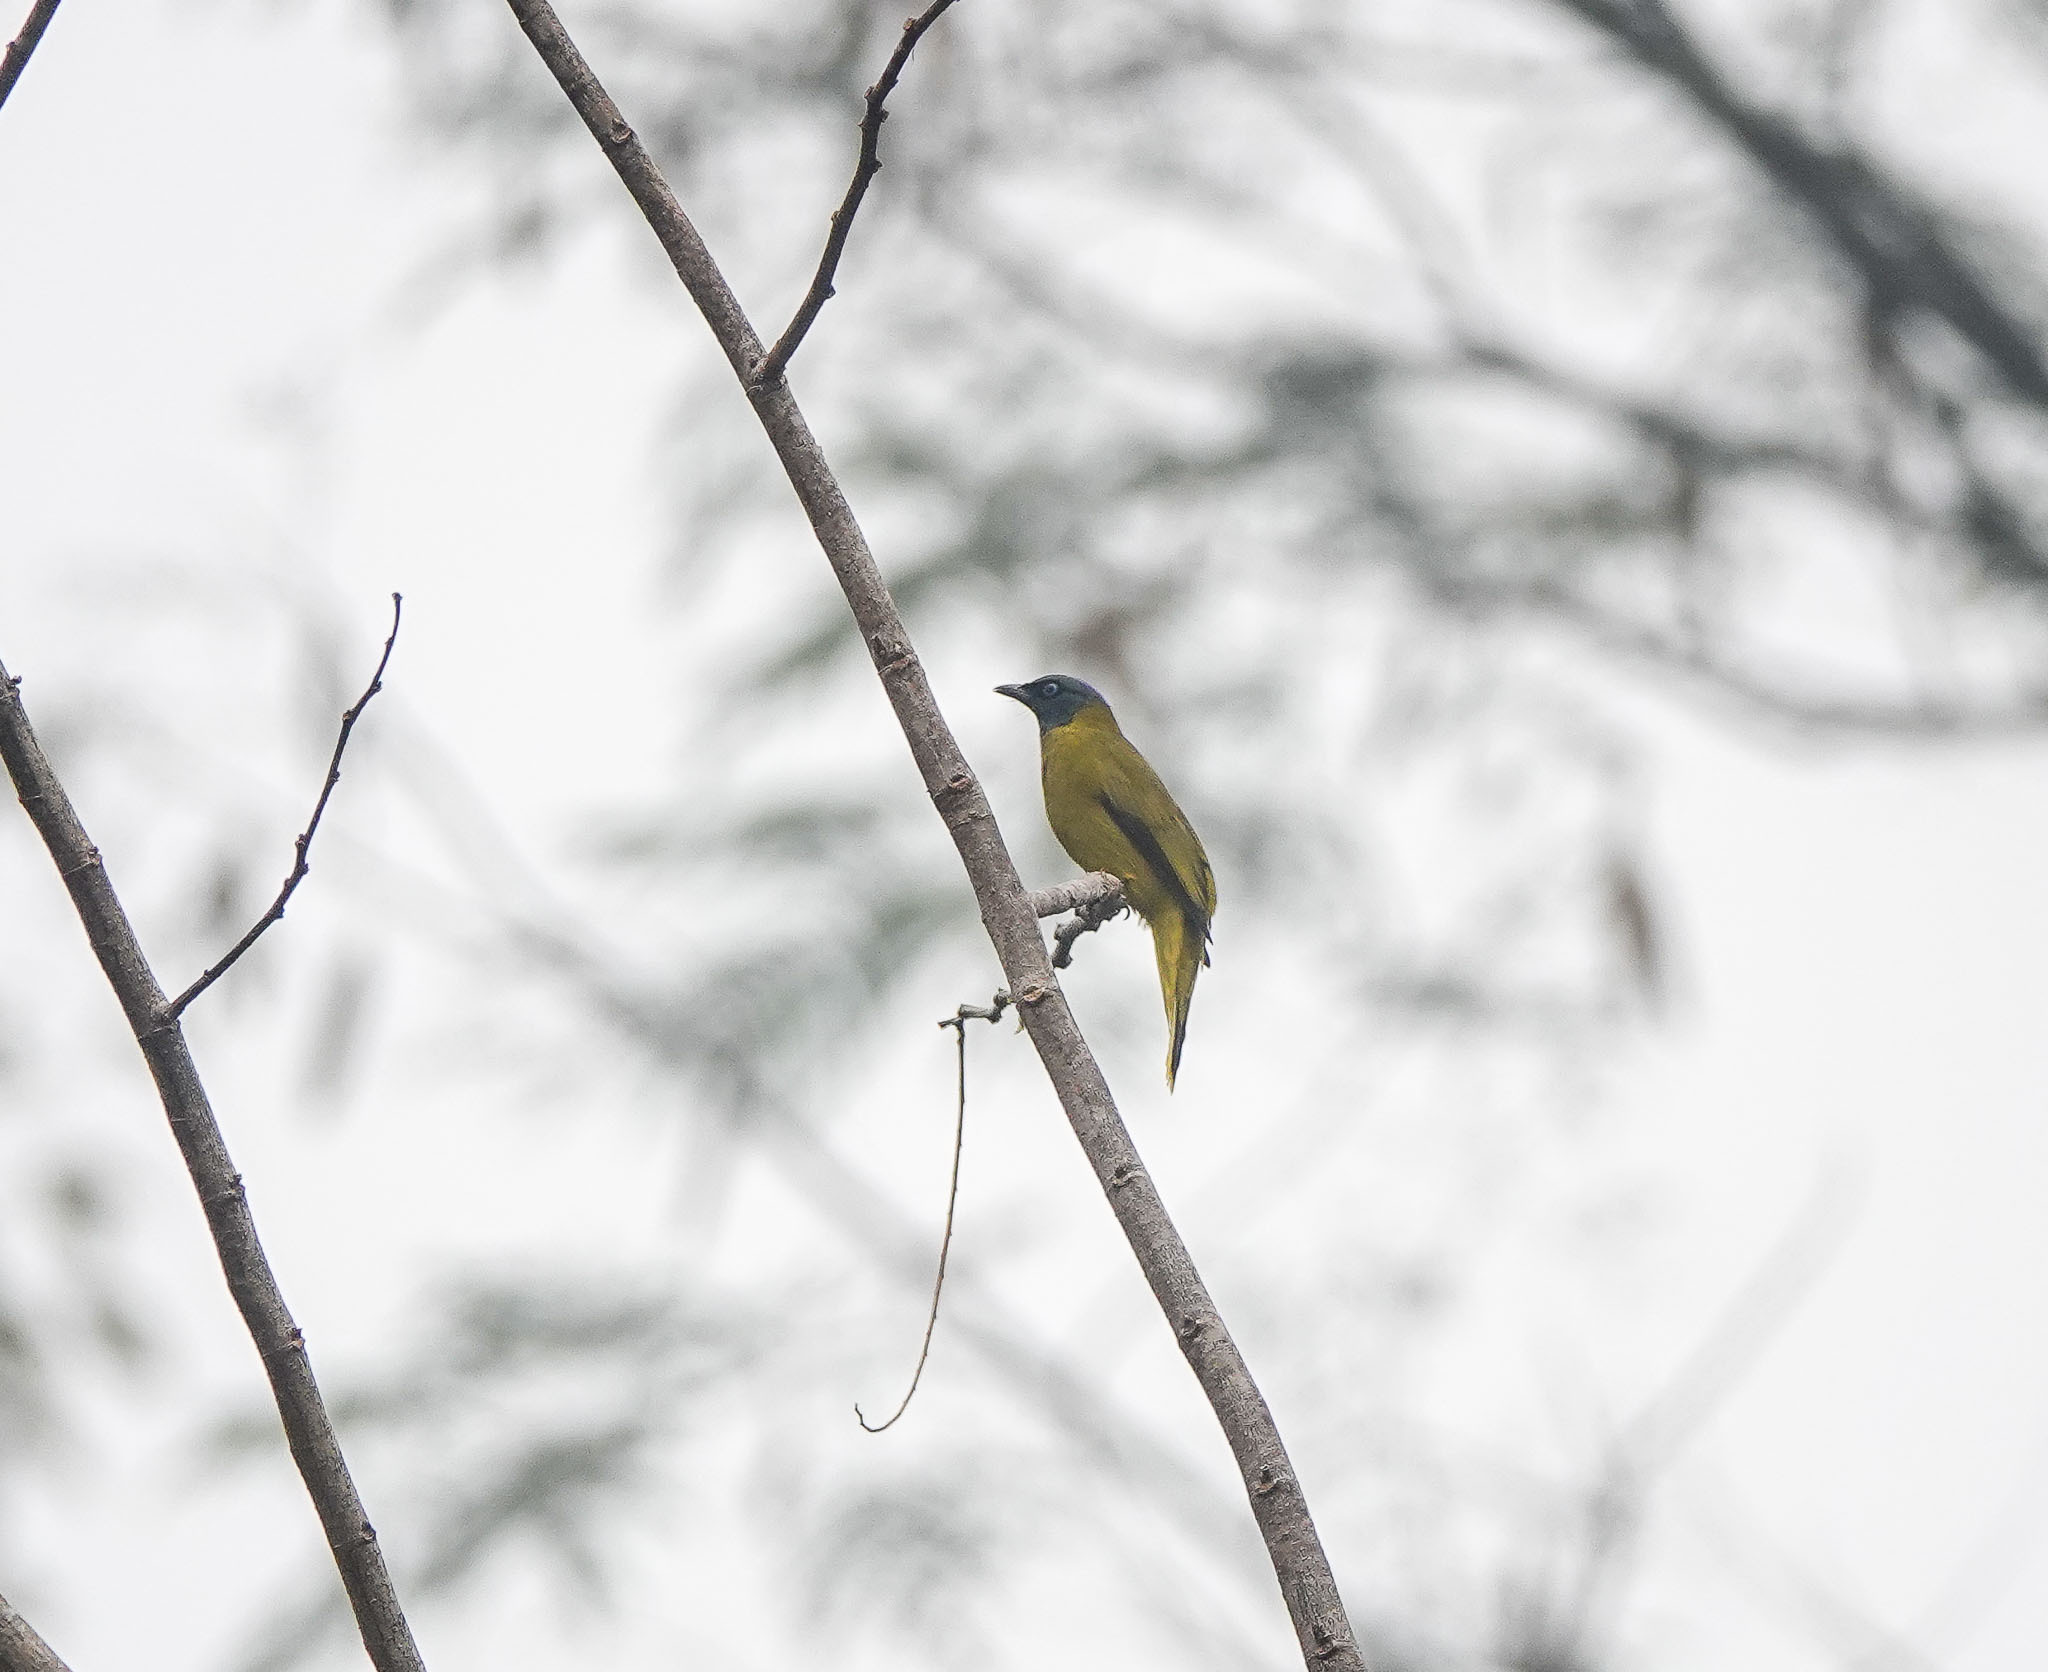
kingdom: Animalia
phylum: Chordata
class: Aves
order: Passeriformes
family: Pycnonotidae
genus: Microtarsus
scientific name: Microtarsus
